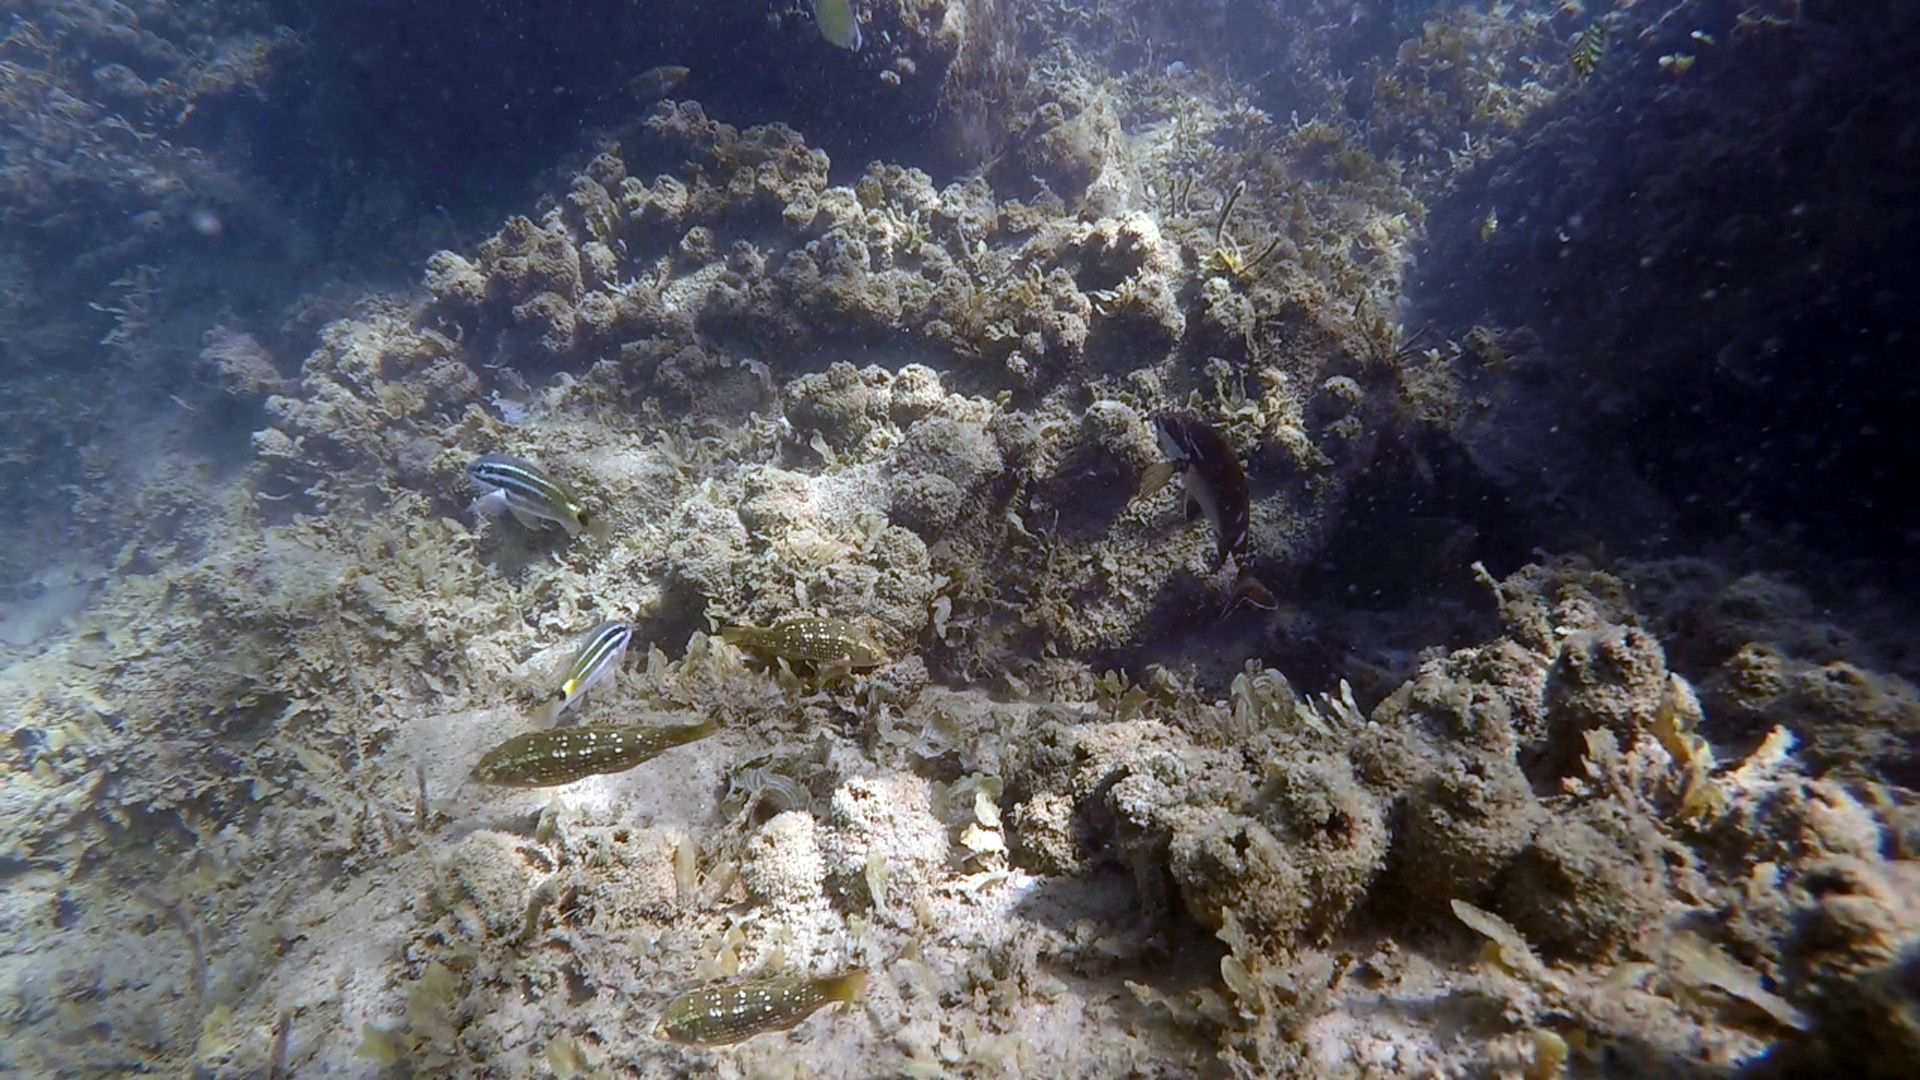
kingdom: Animalia
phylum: Chordata
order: Perciformes
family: Labridae
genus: Notolabrus
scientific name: Notolabrus gymnogenis
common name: Crimson banded wrasse
